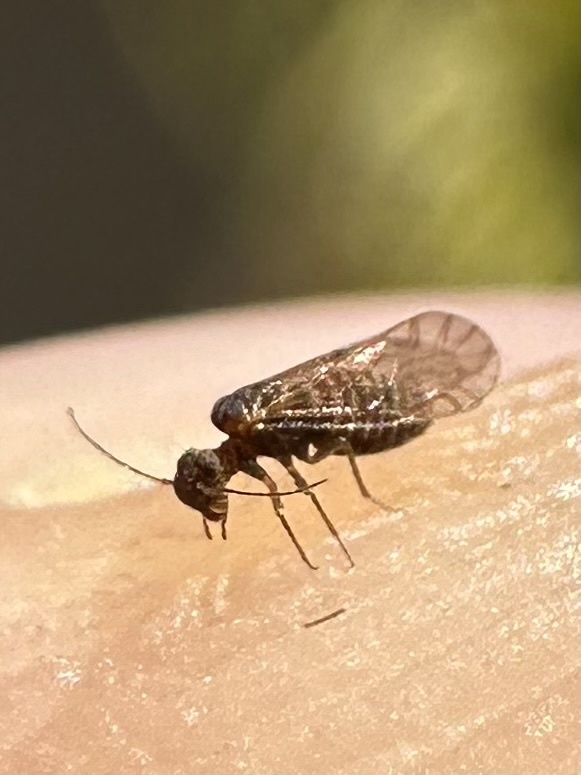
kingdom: Animalia
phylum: Arthropoda
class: Insecta
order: Psocodea
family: Lachesillidae
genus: Lachesilla
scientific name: Lachesilla nubilis
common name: Bark lice
